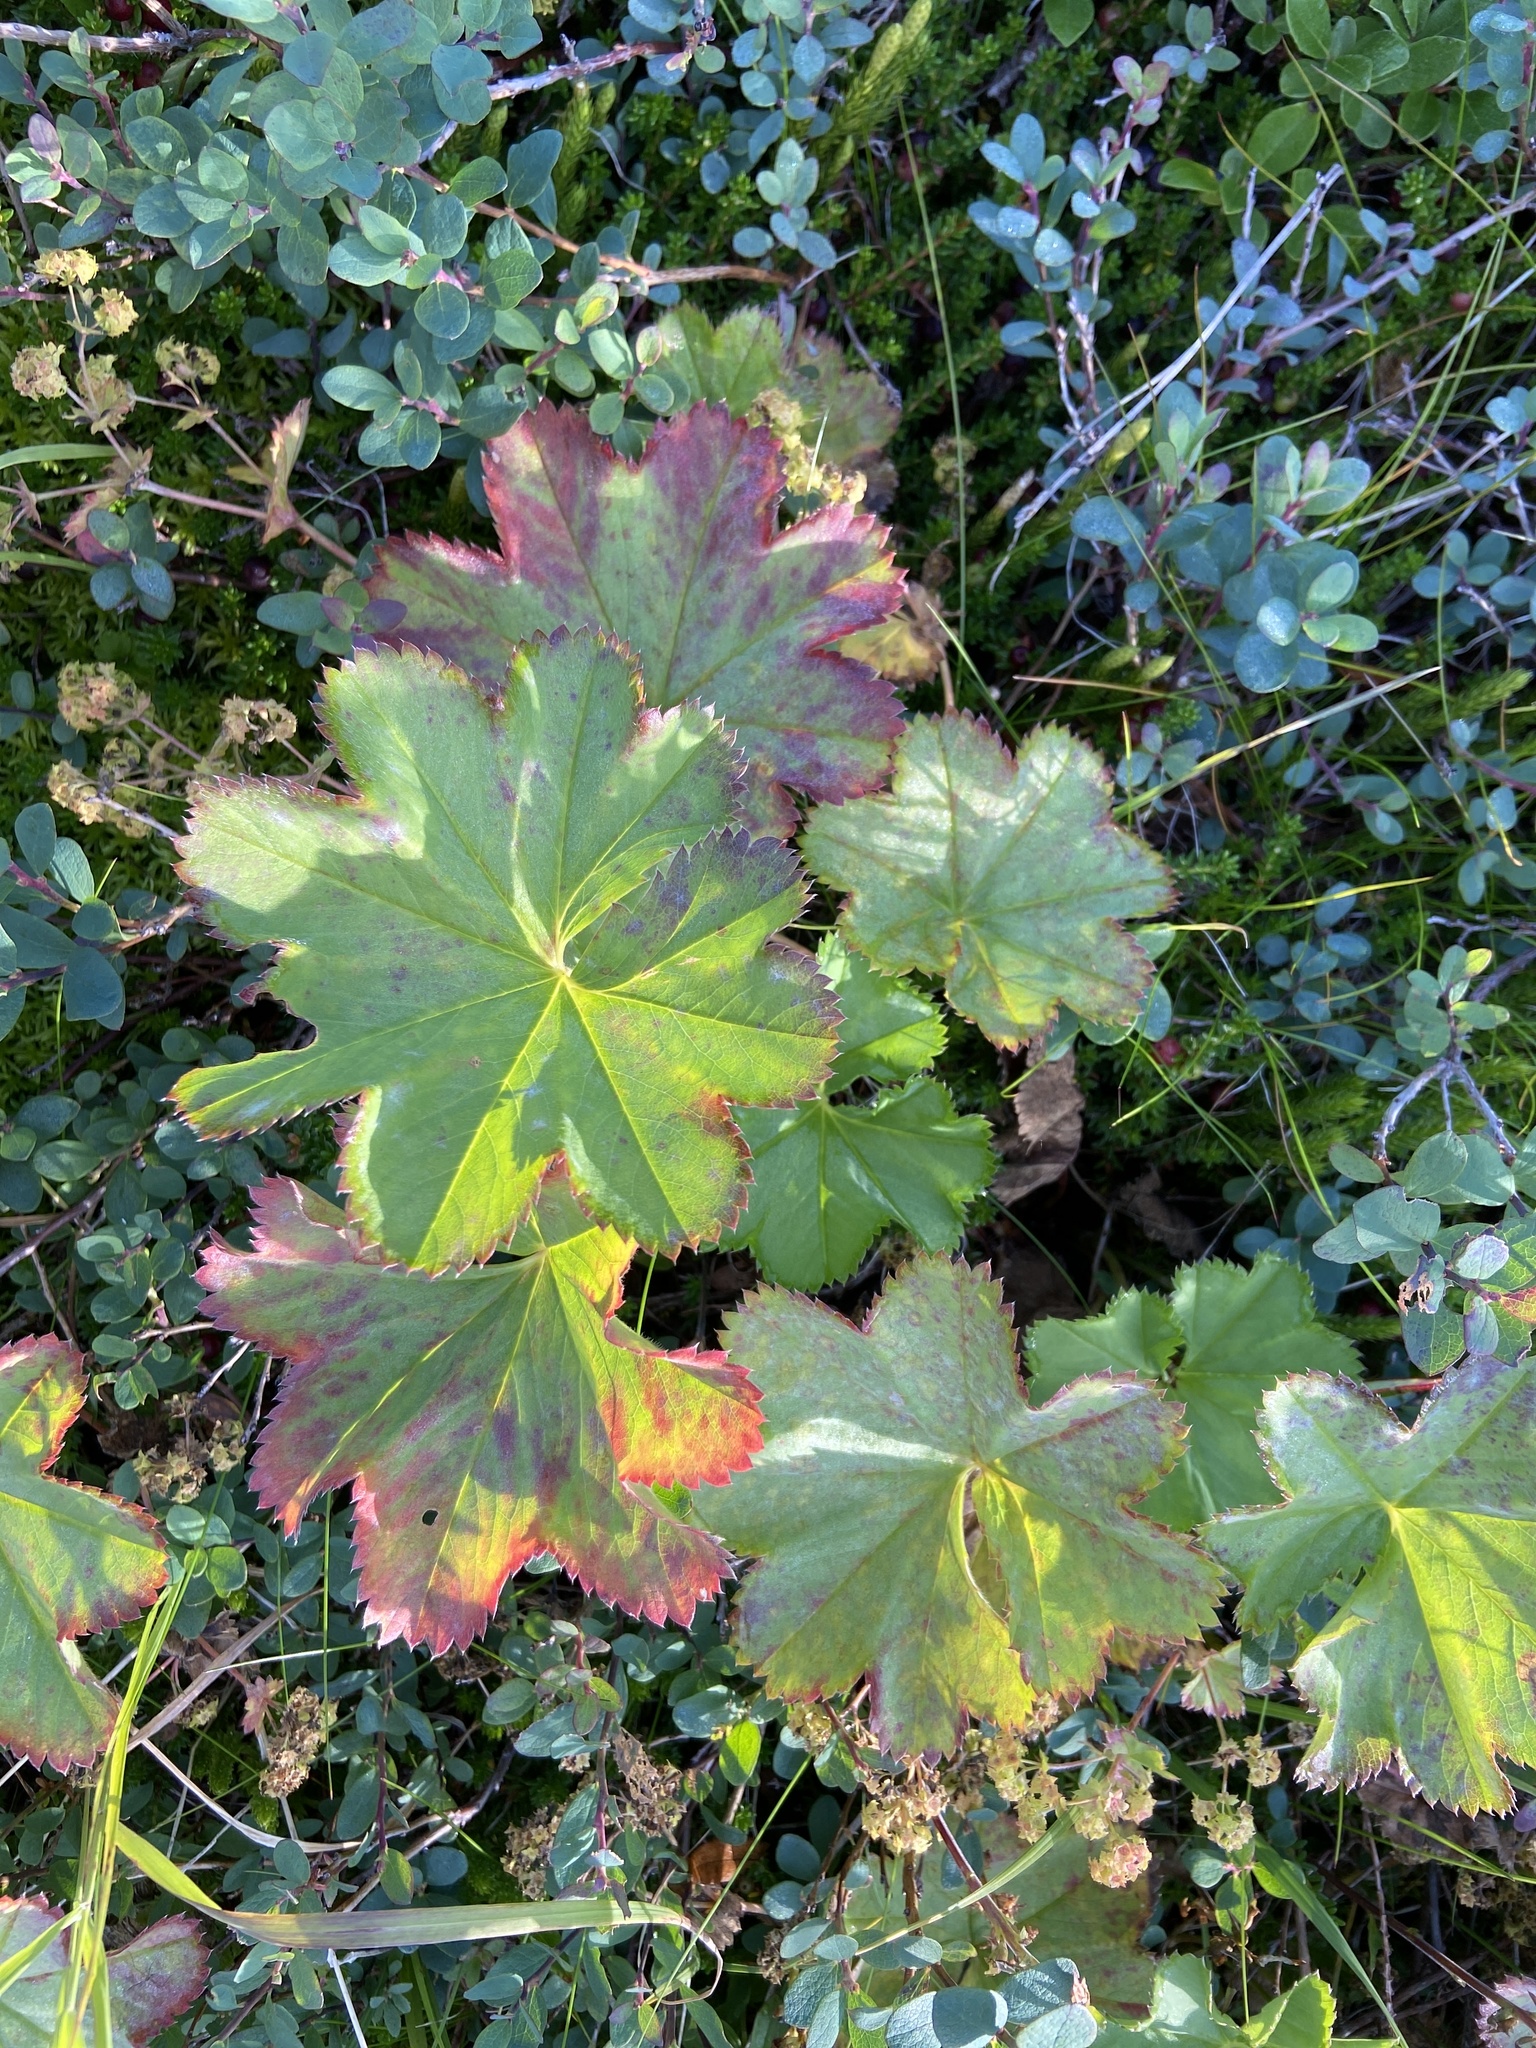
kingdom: Plantae
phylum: Tracheophyta
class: Magnoliopsida
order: Rosales
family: Rosaceae
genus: Alchemilla
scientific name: Alchemilla filicaulis
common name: Hairy lady's-mantle
